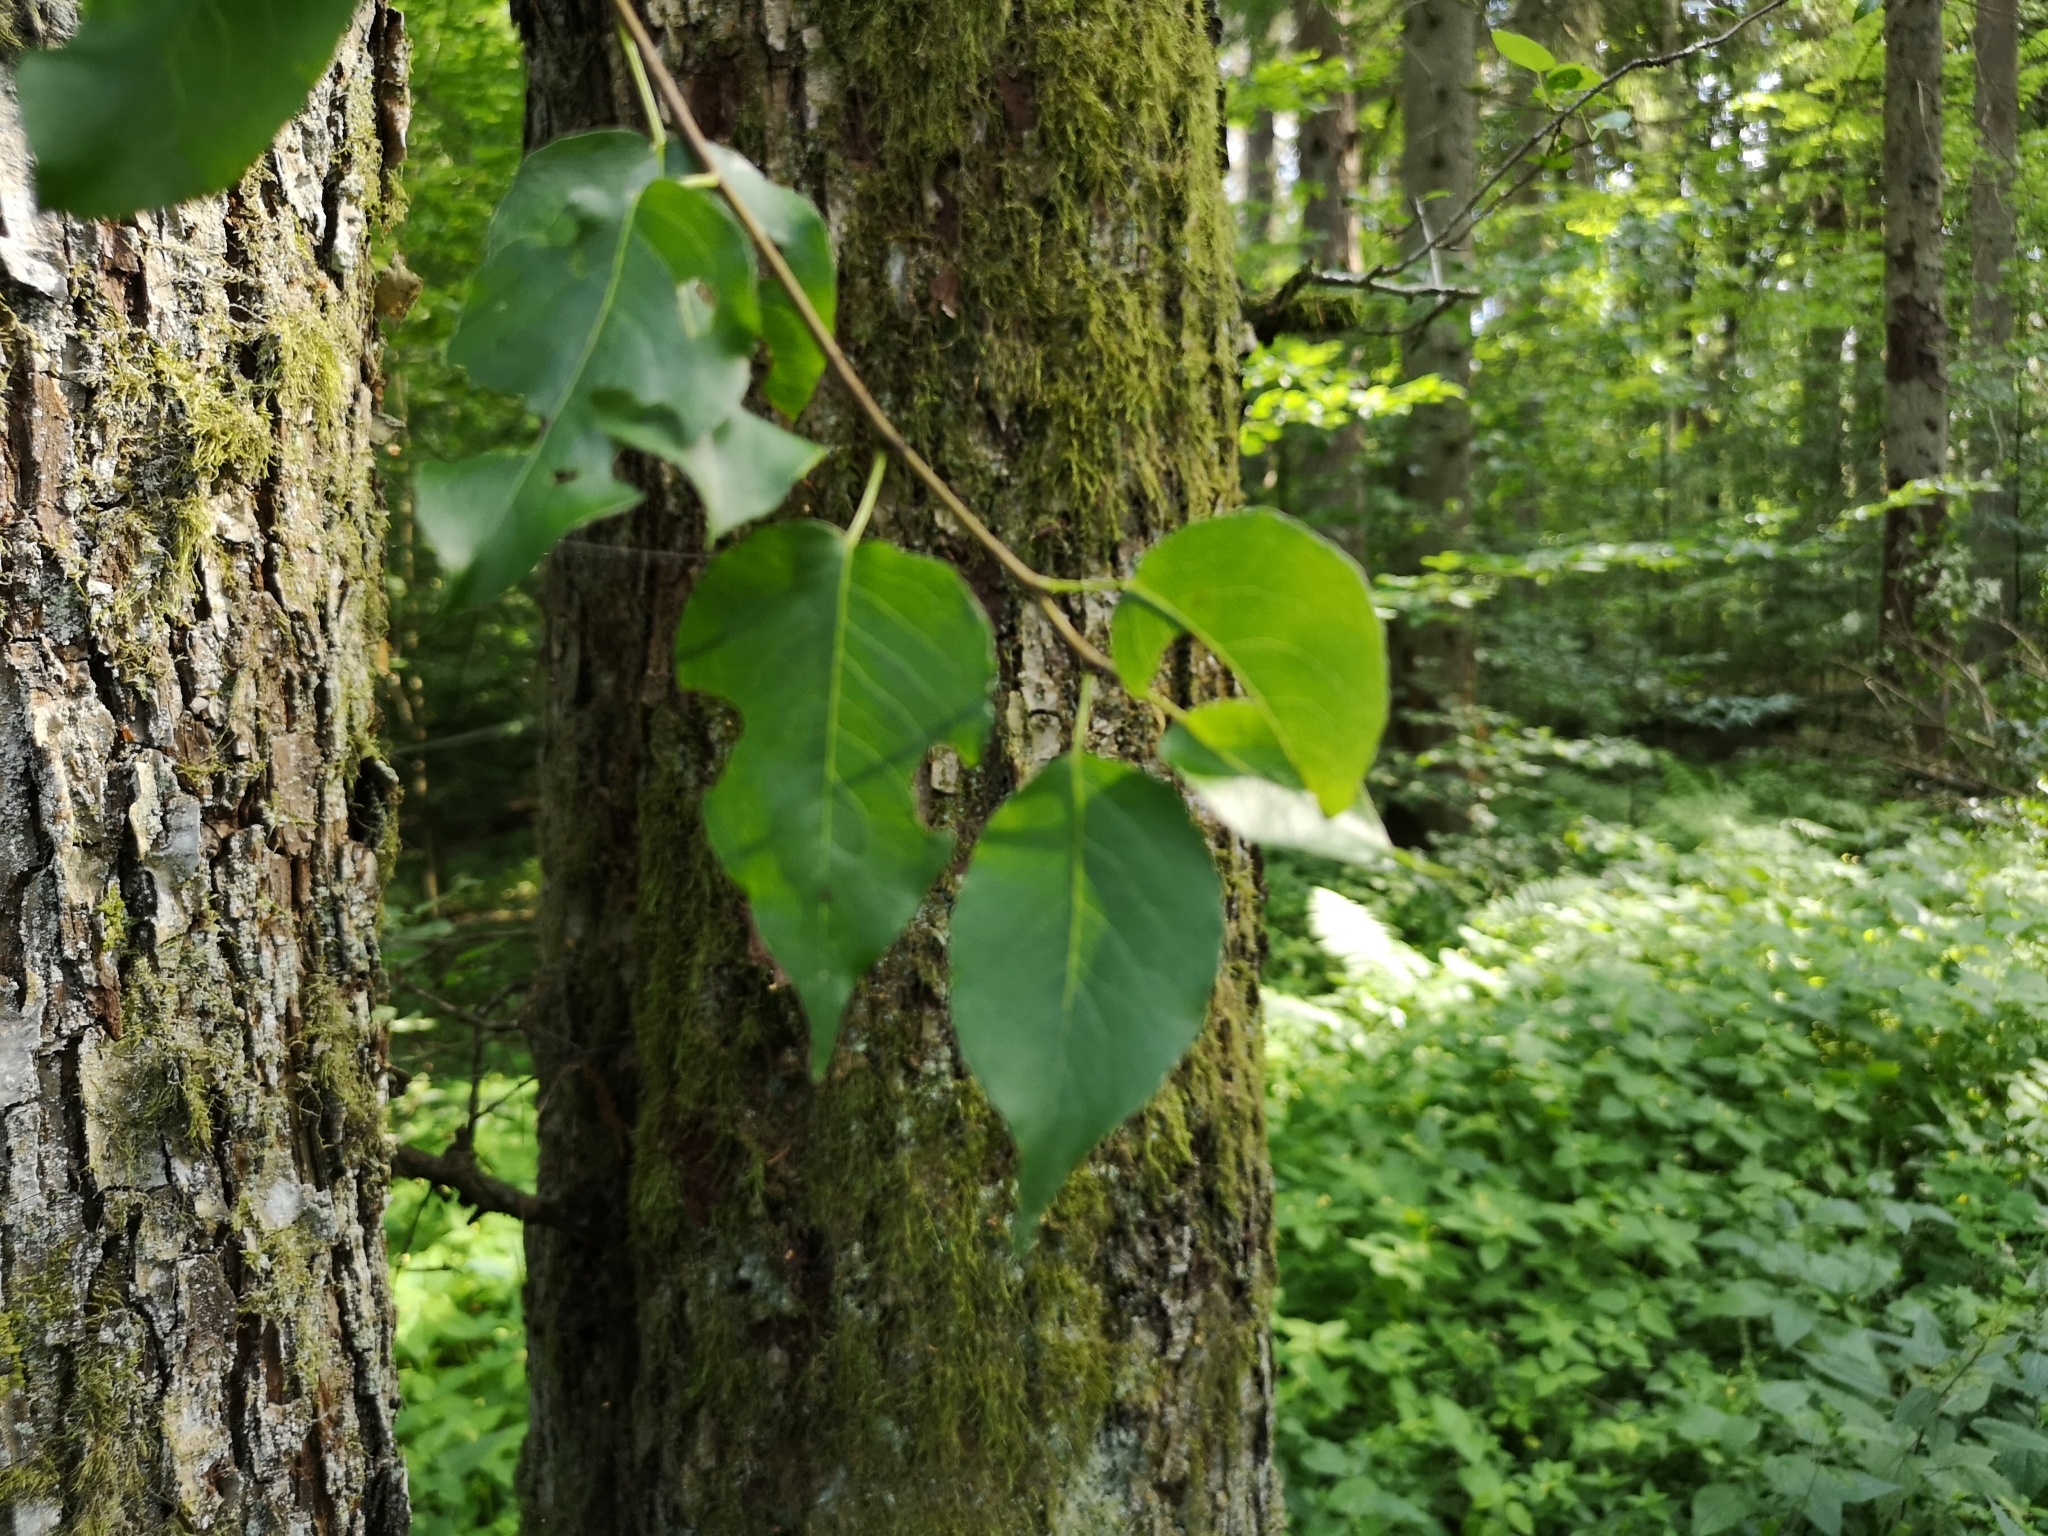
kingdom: Plantae
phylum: Tracheophyta
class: Magnoliopsida
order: Rosales
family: Rosaceae
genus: Pyrus
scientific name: Pyrus communis
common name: Pear
